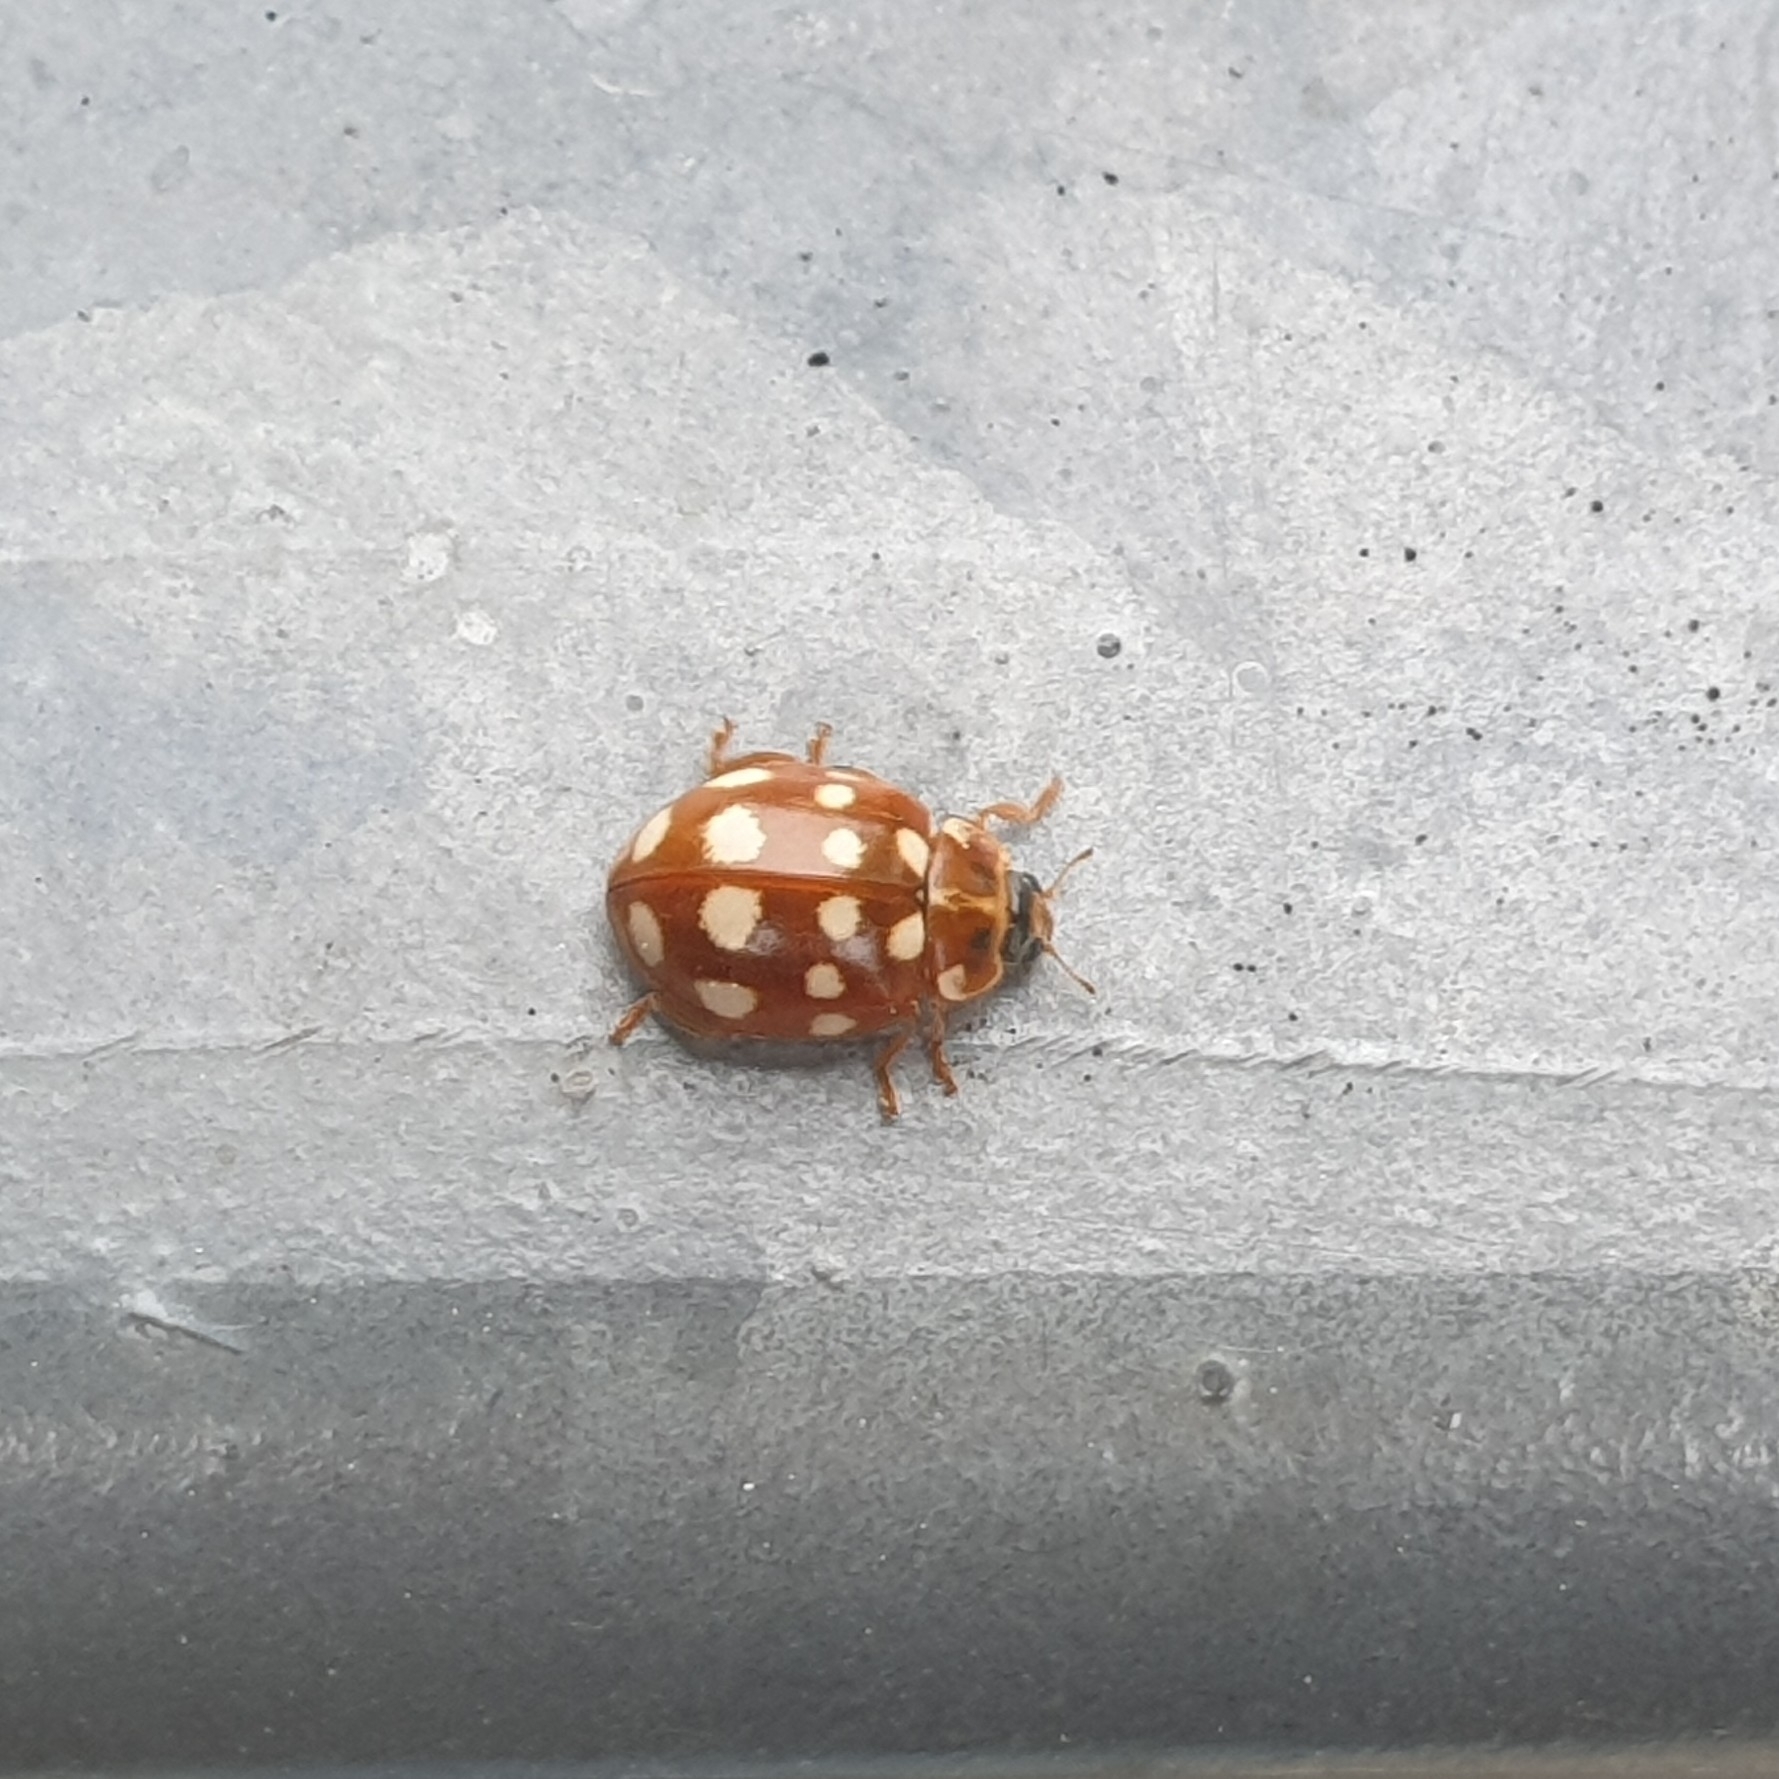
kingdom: Animalia
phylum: Arthropoda
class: Insecta
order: Coleoptera
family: Coccinellidae
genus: Calvia
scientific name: Calvia quatuordecimguttata
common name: Cream-spot ladybird
